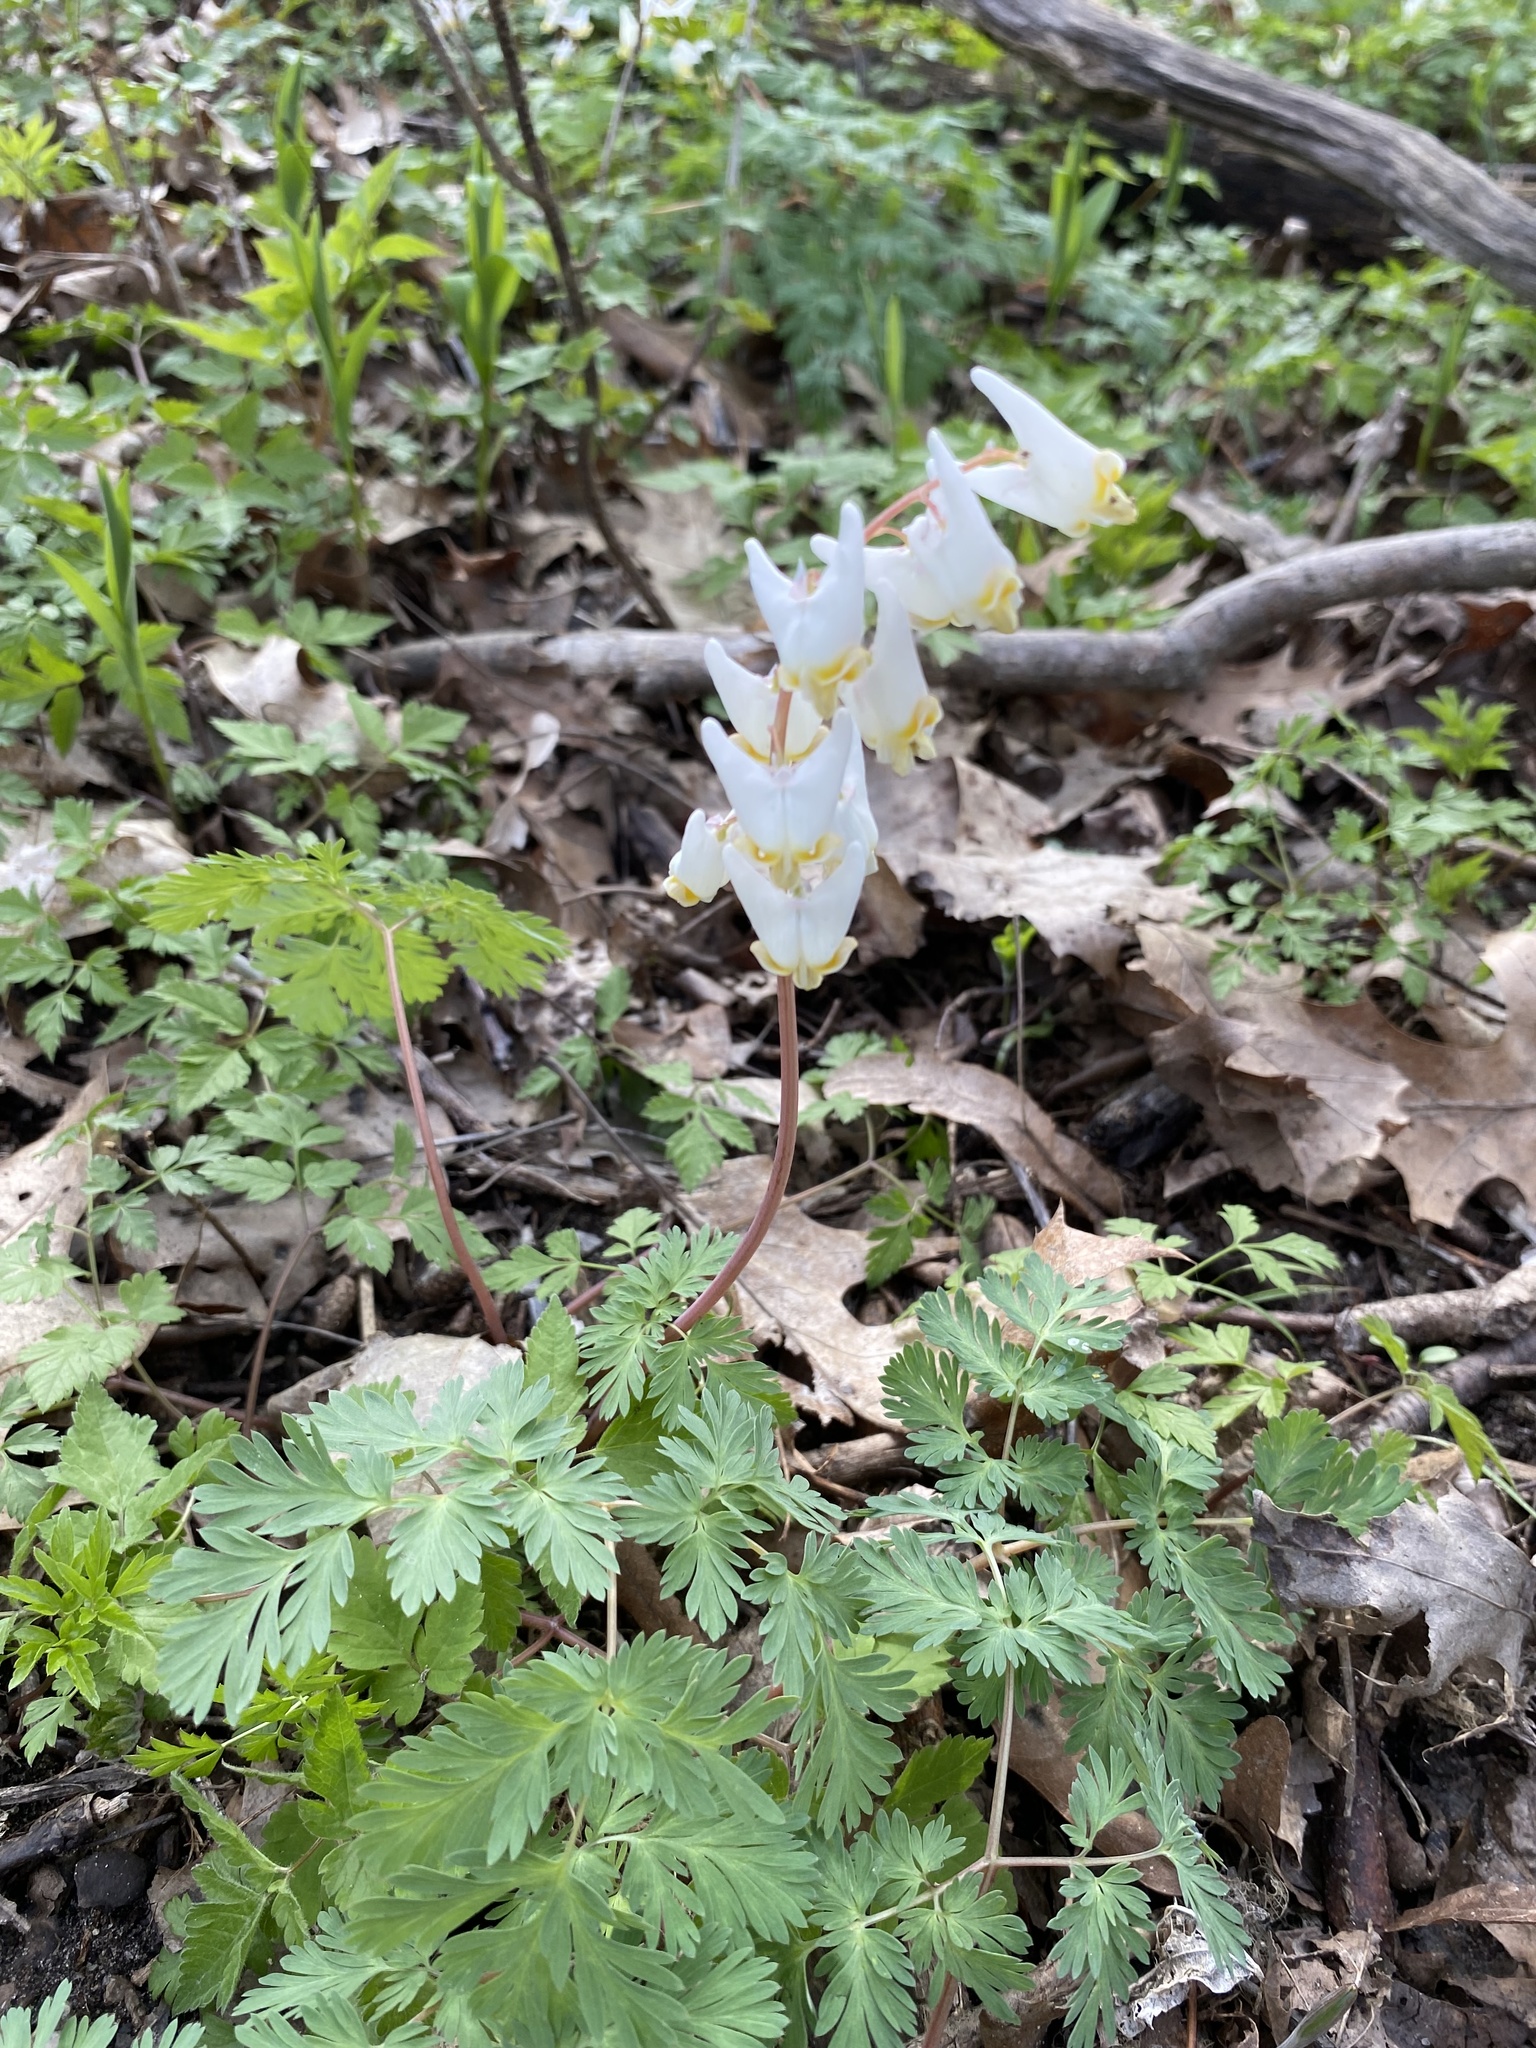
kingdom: Plantae
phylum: Tracheophyta
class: Magnoliopsida
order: Ranunculales
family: Papaveraceae
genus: Dicentra
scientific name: Dicentra cucullaria
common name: Dutchman's breeches
